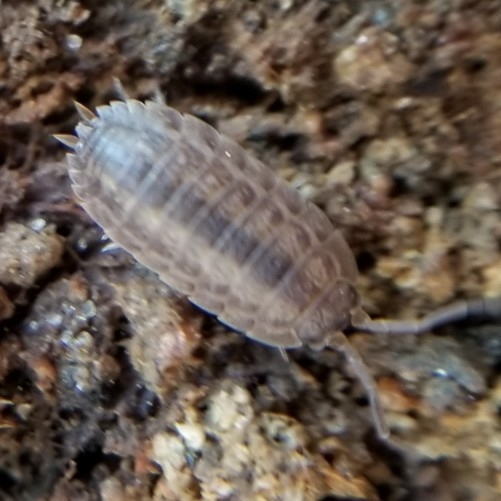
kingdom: Animalia
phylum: Arthropoda
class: Malacostraca
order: Isopoda
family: Trachelipodidae
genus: Trachelipus
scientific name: Trachelipus rathkii
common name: Isopod
